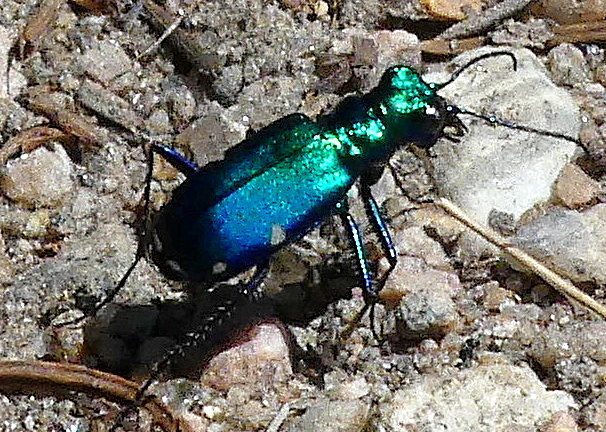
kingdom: Animalia
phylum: Arthropoda
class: Insecta
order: Coleoptera
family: Carabidae
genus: Cicindela
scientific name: Cicindela sexguttata
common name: Six-spotted tiger beetle
